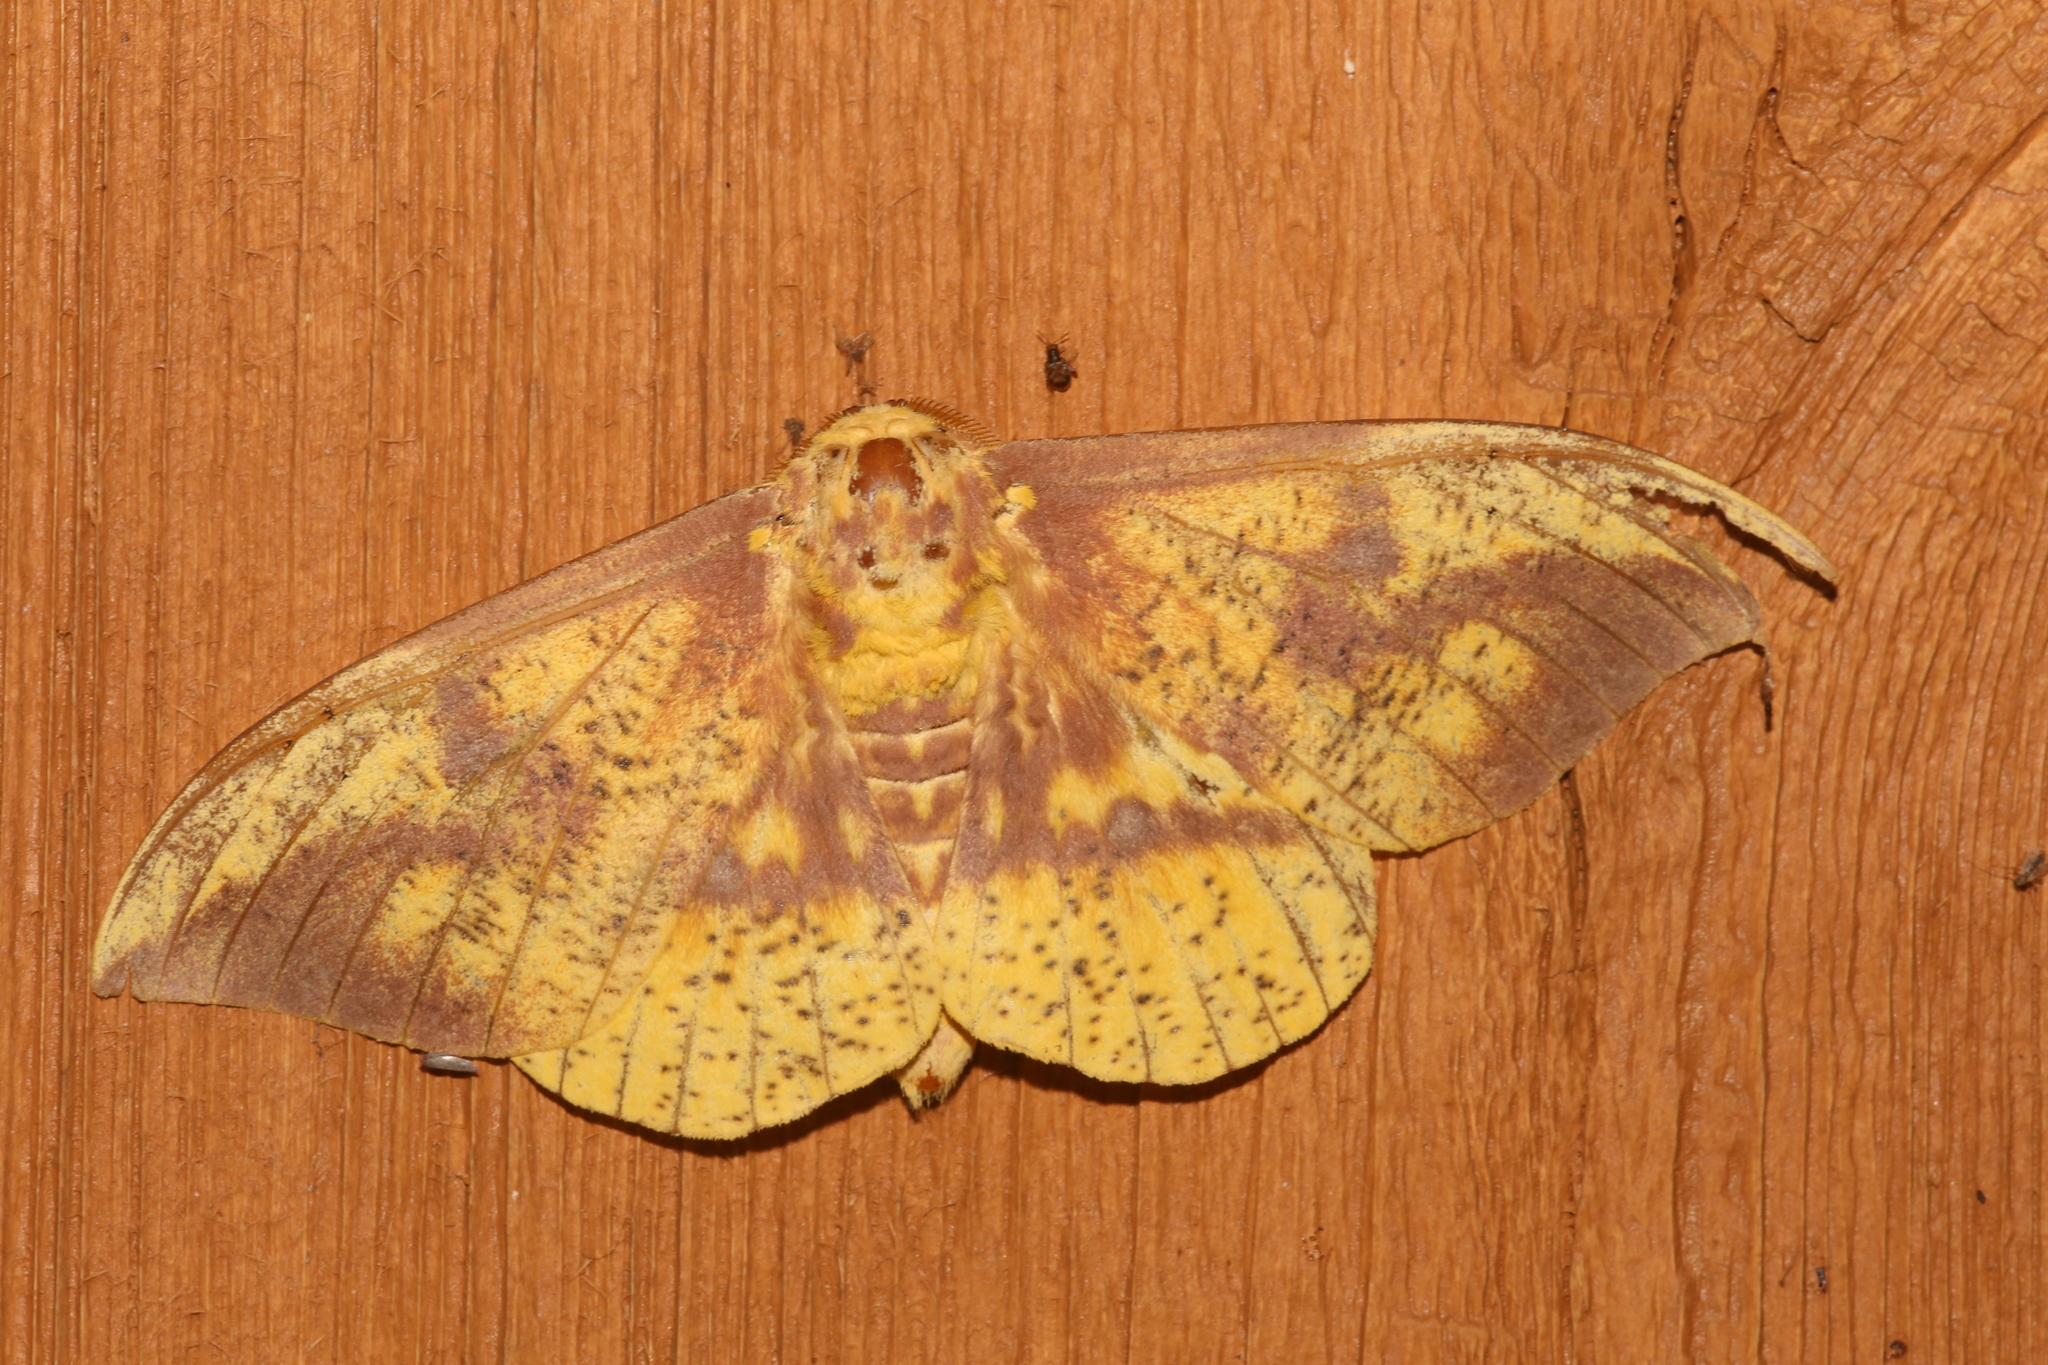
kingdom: Animalia
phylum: Arthropoda
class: Insecta
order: Lepidoptera
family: Saturniidae
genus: Eacles
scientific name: Eacles imperialis
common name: Imperial moth
